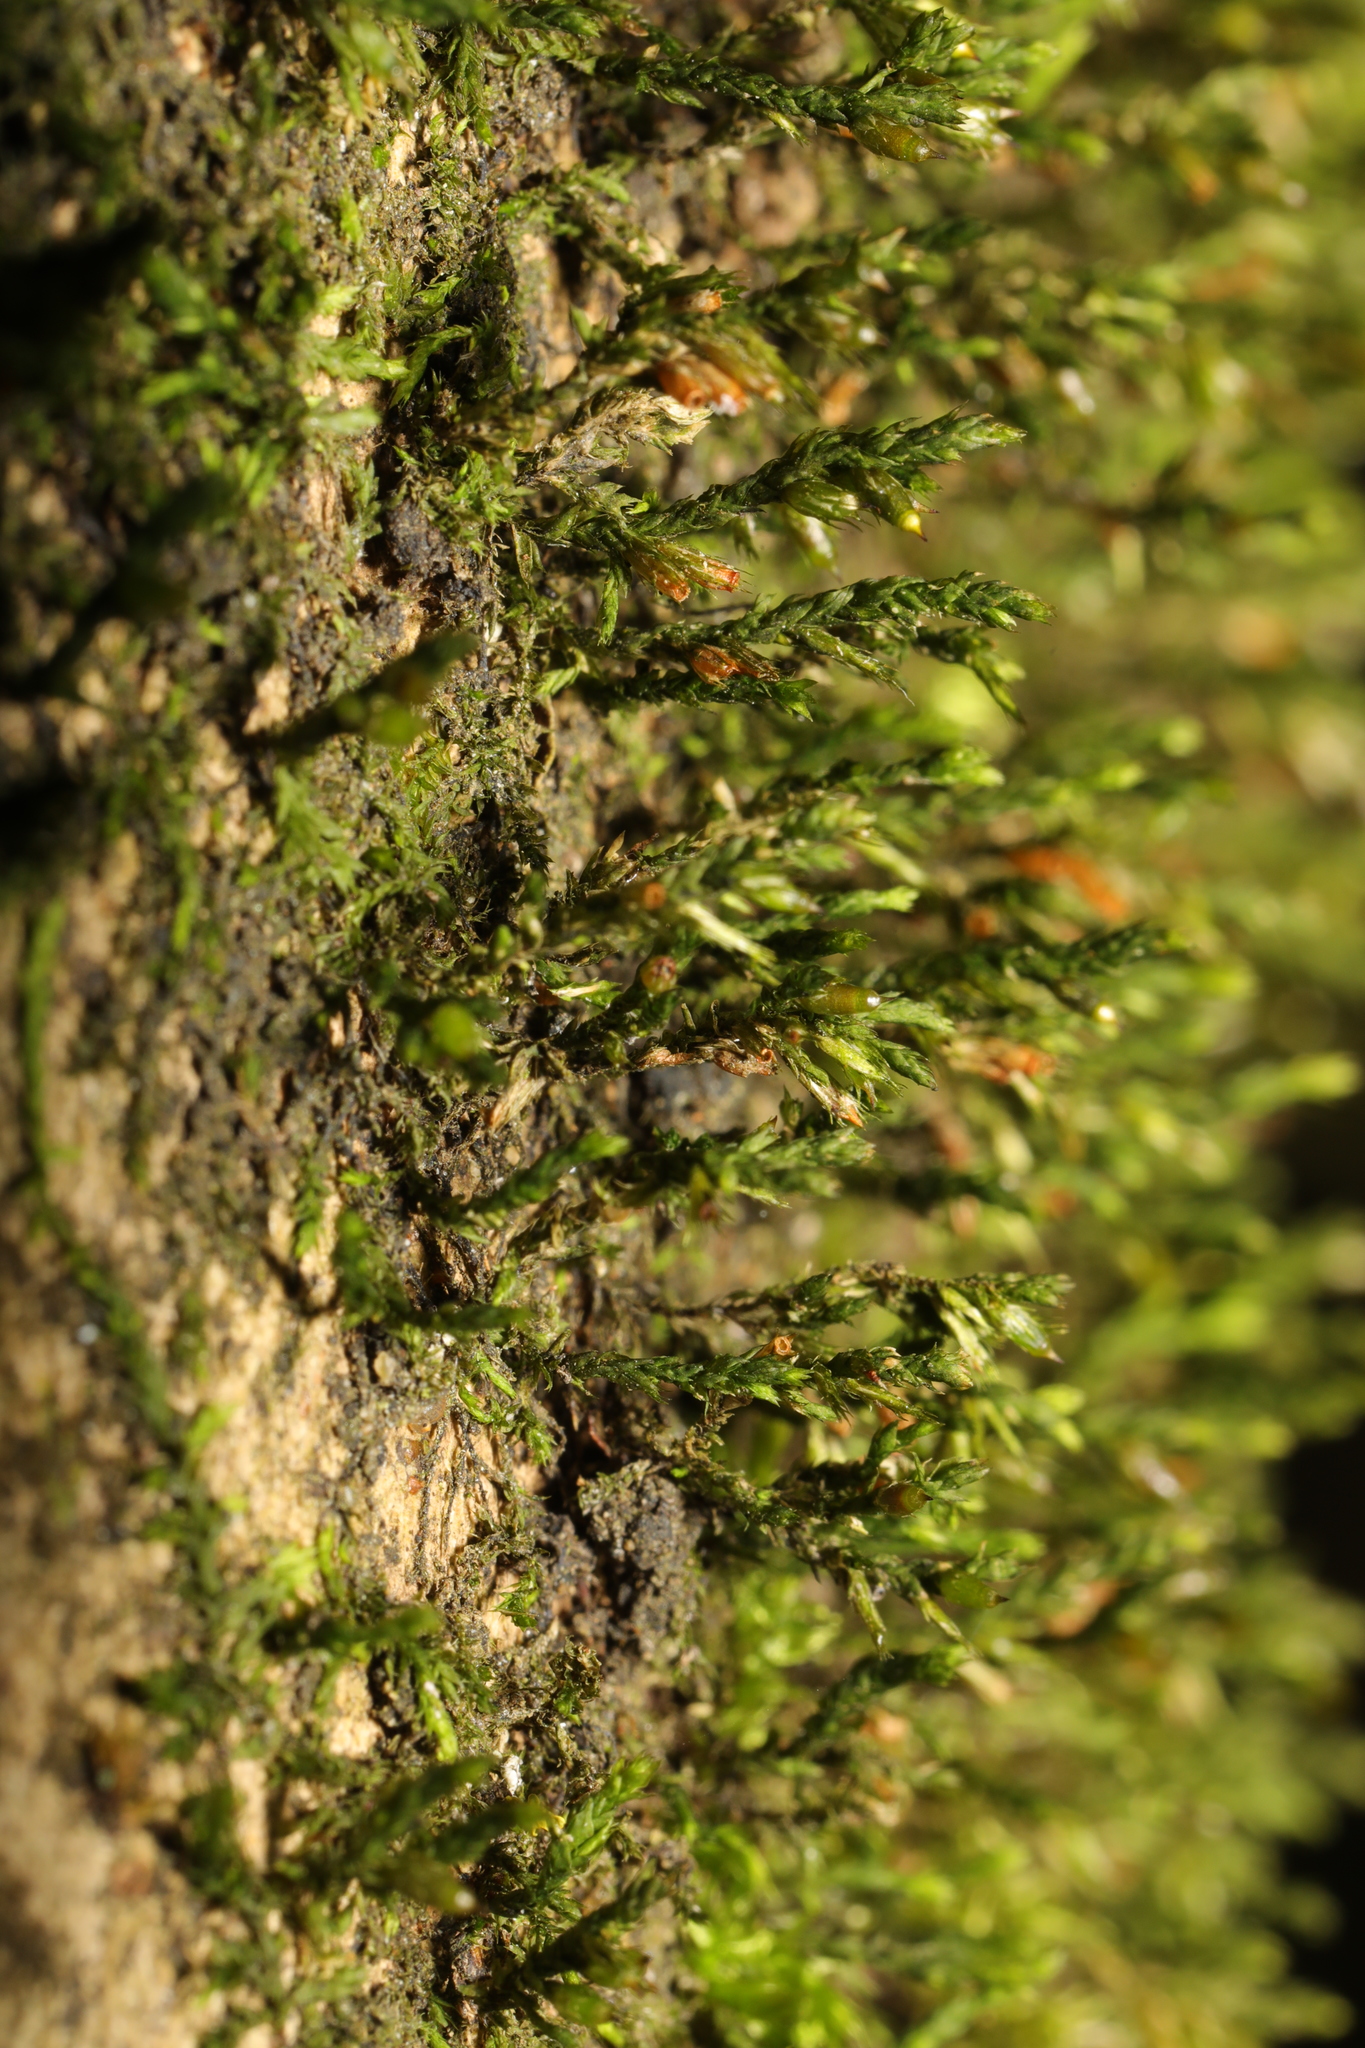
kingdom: Plantae
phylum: Bryophyta
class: Bryopsida
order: Hypnales
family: Cryphaeaceae
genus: Cryphaea
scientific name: Cryphaea heteromalla
